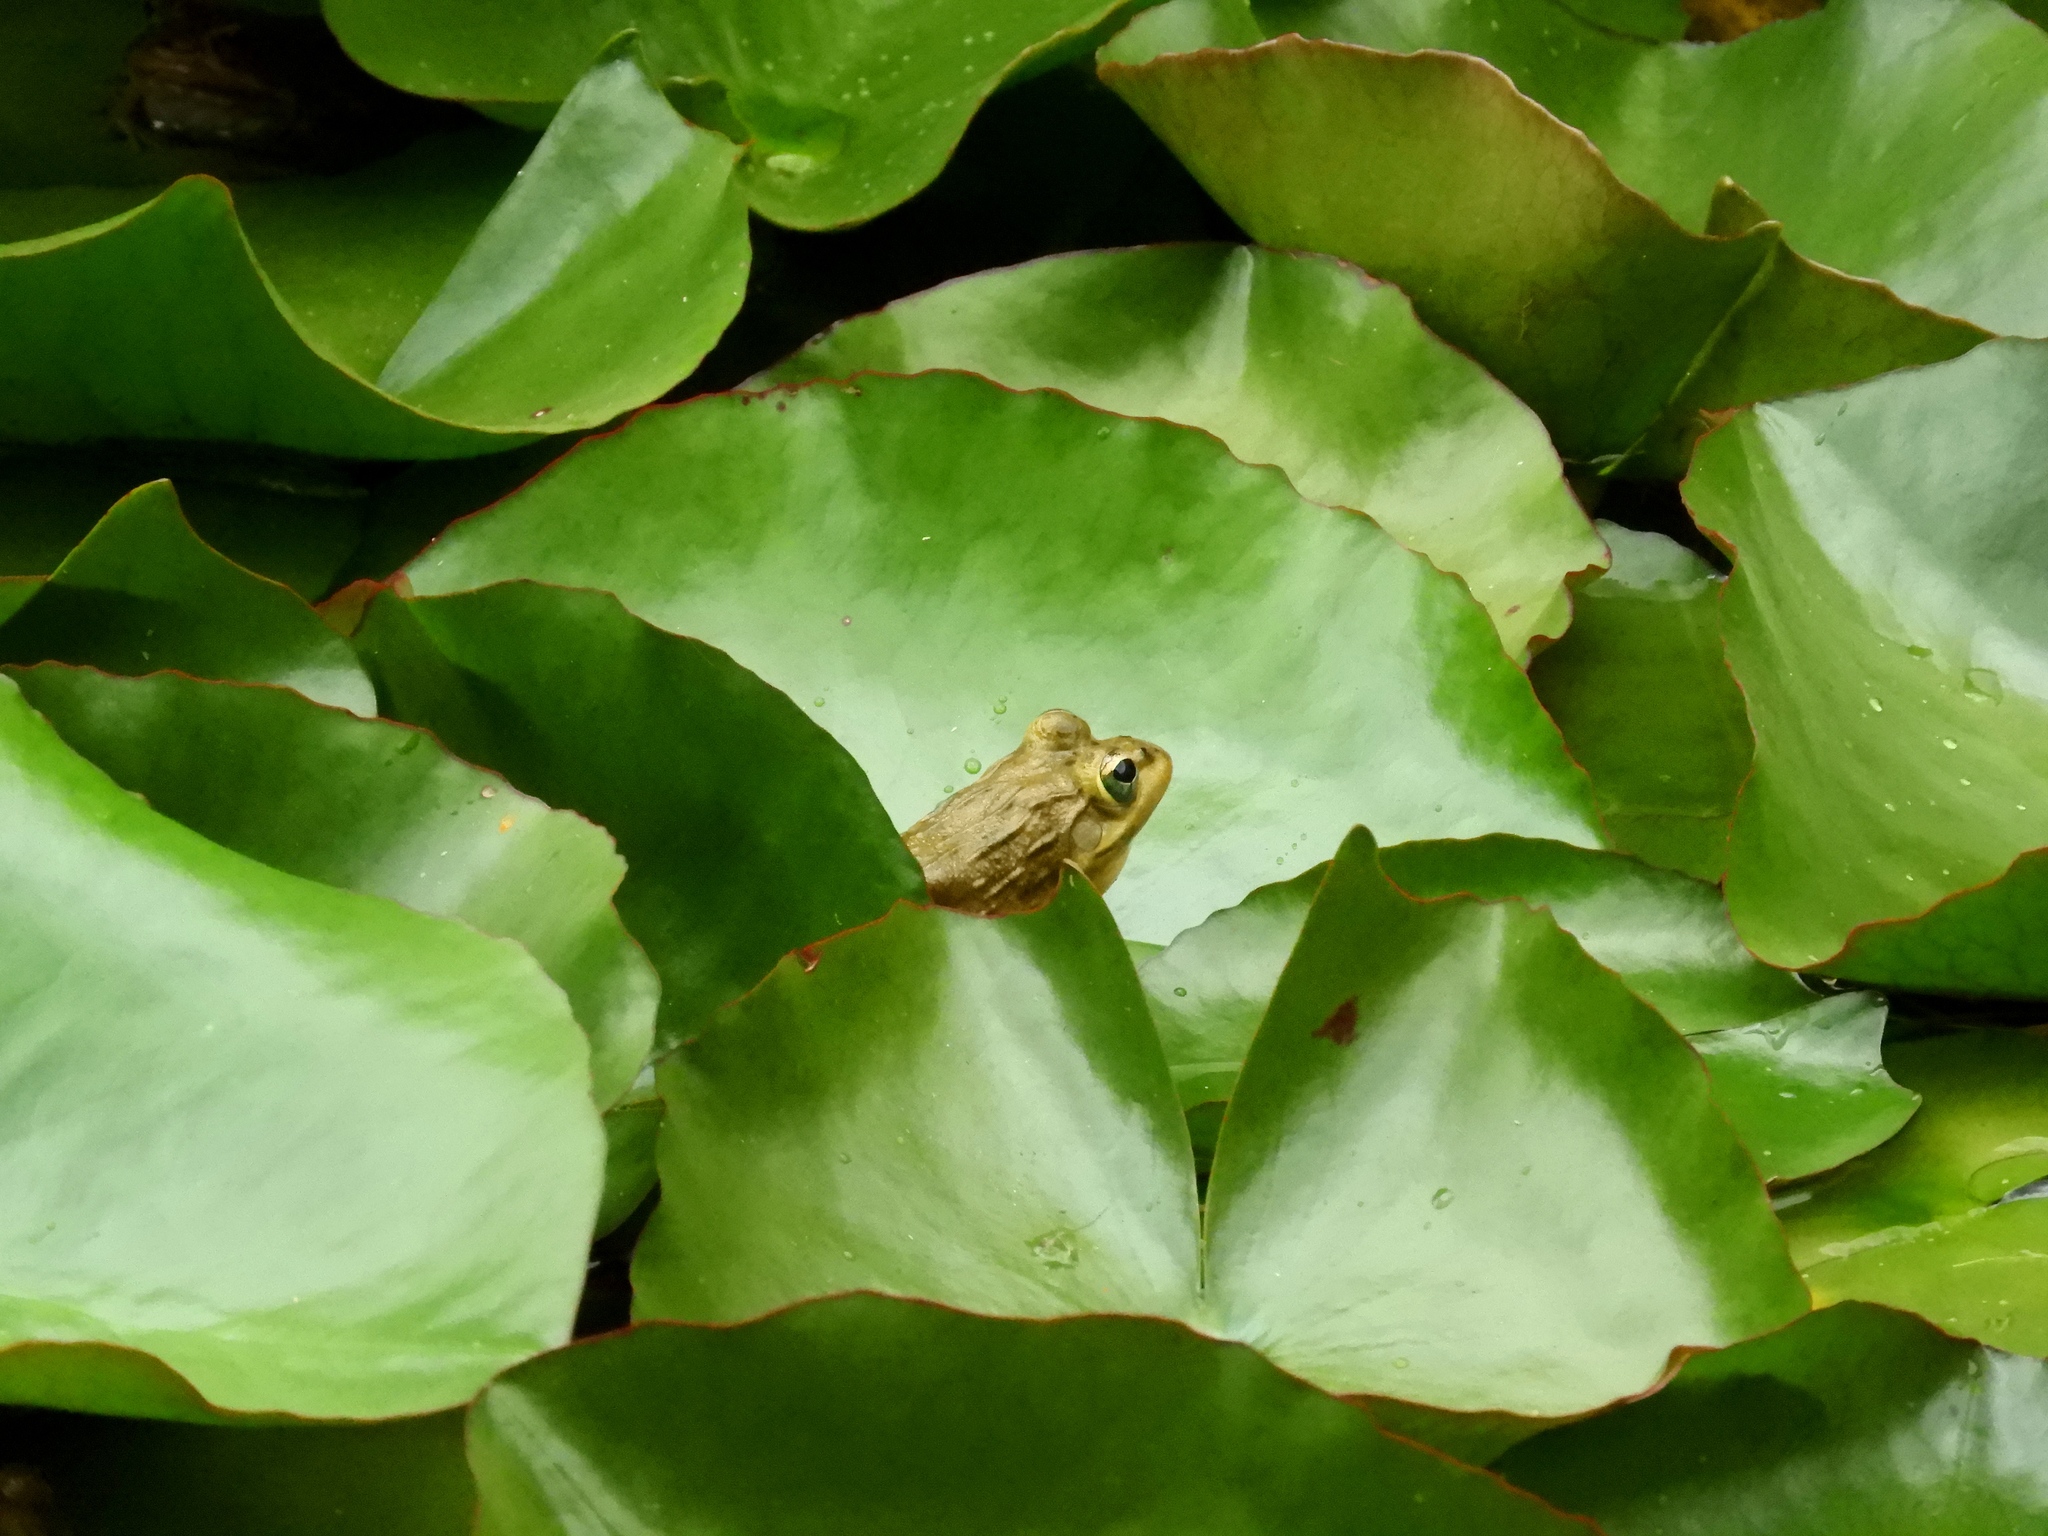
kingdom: Animalia
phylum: Chordata
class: Amphibia
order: Anura
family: Pyxicephalidae
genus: Amietia
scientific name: Amietia fuscigula
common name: Cape rana
